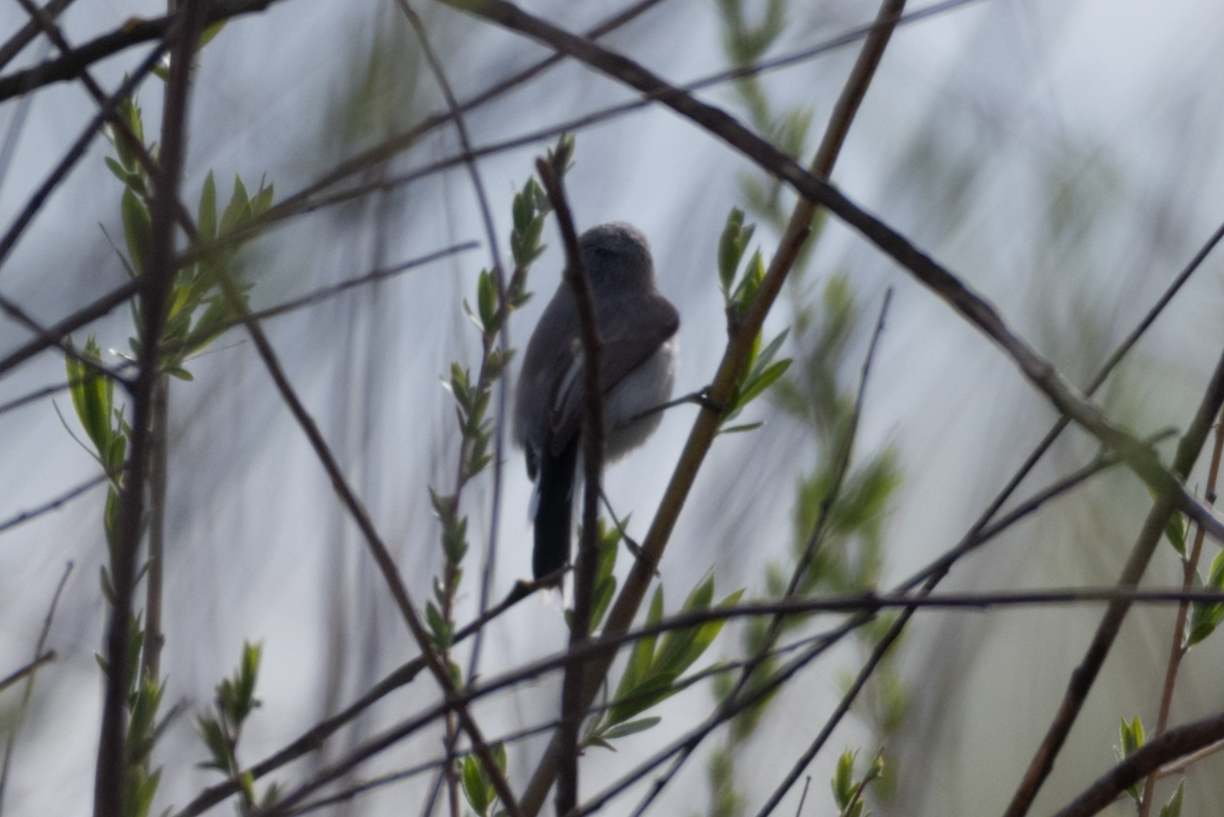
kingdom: Animalia
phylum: Chordata
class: Aves
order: Passeriformes
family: Polioptilidae
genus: Polioptila
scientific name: Polioptila caerulea
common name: Blue-gray gnatcatcher
